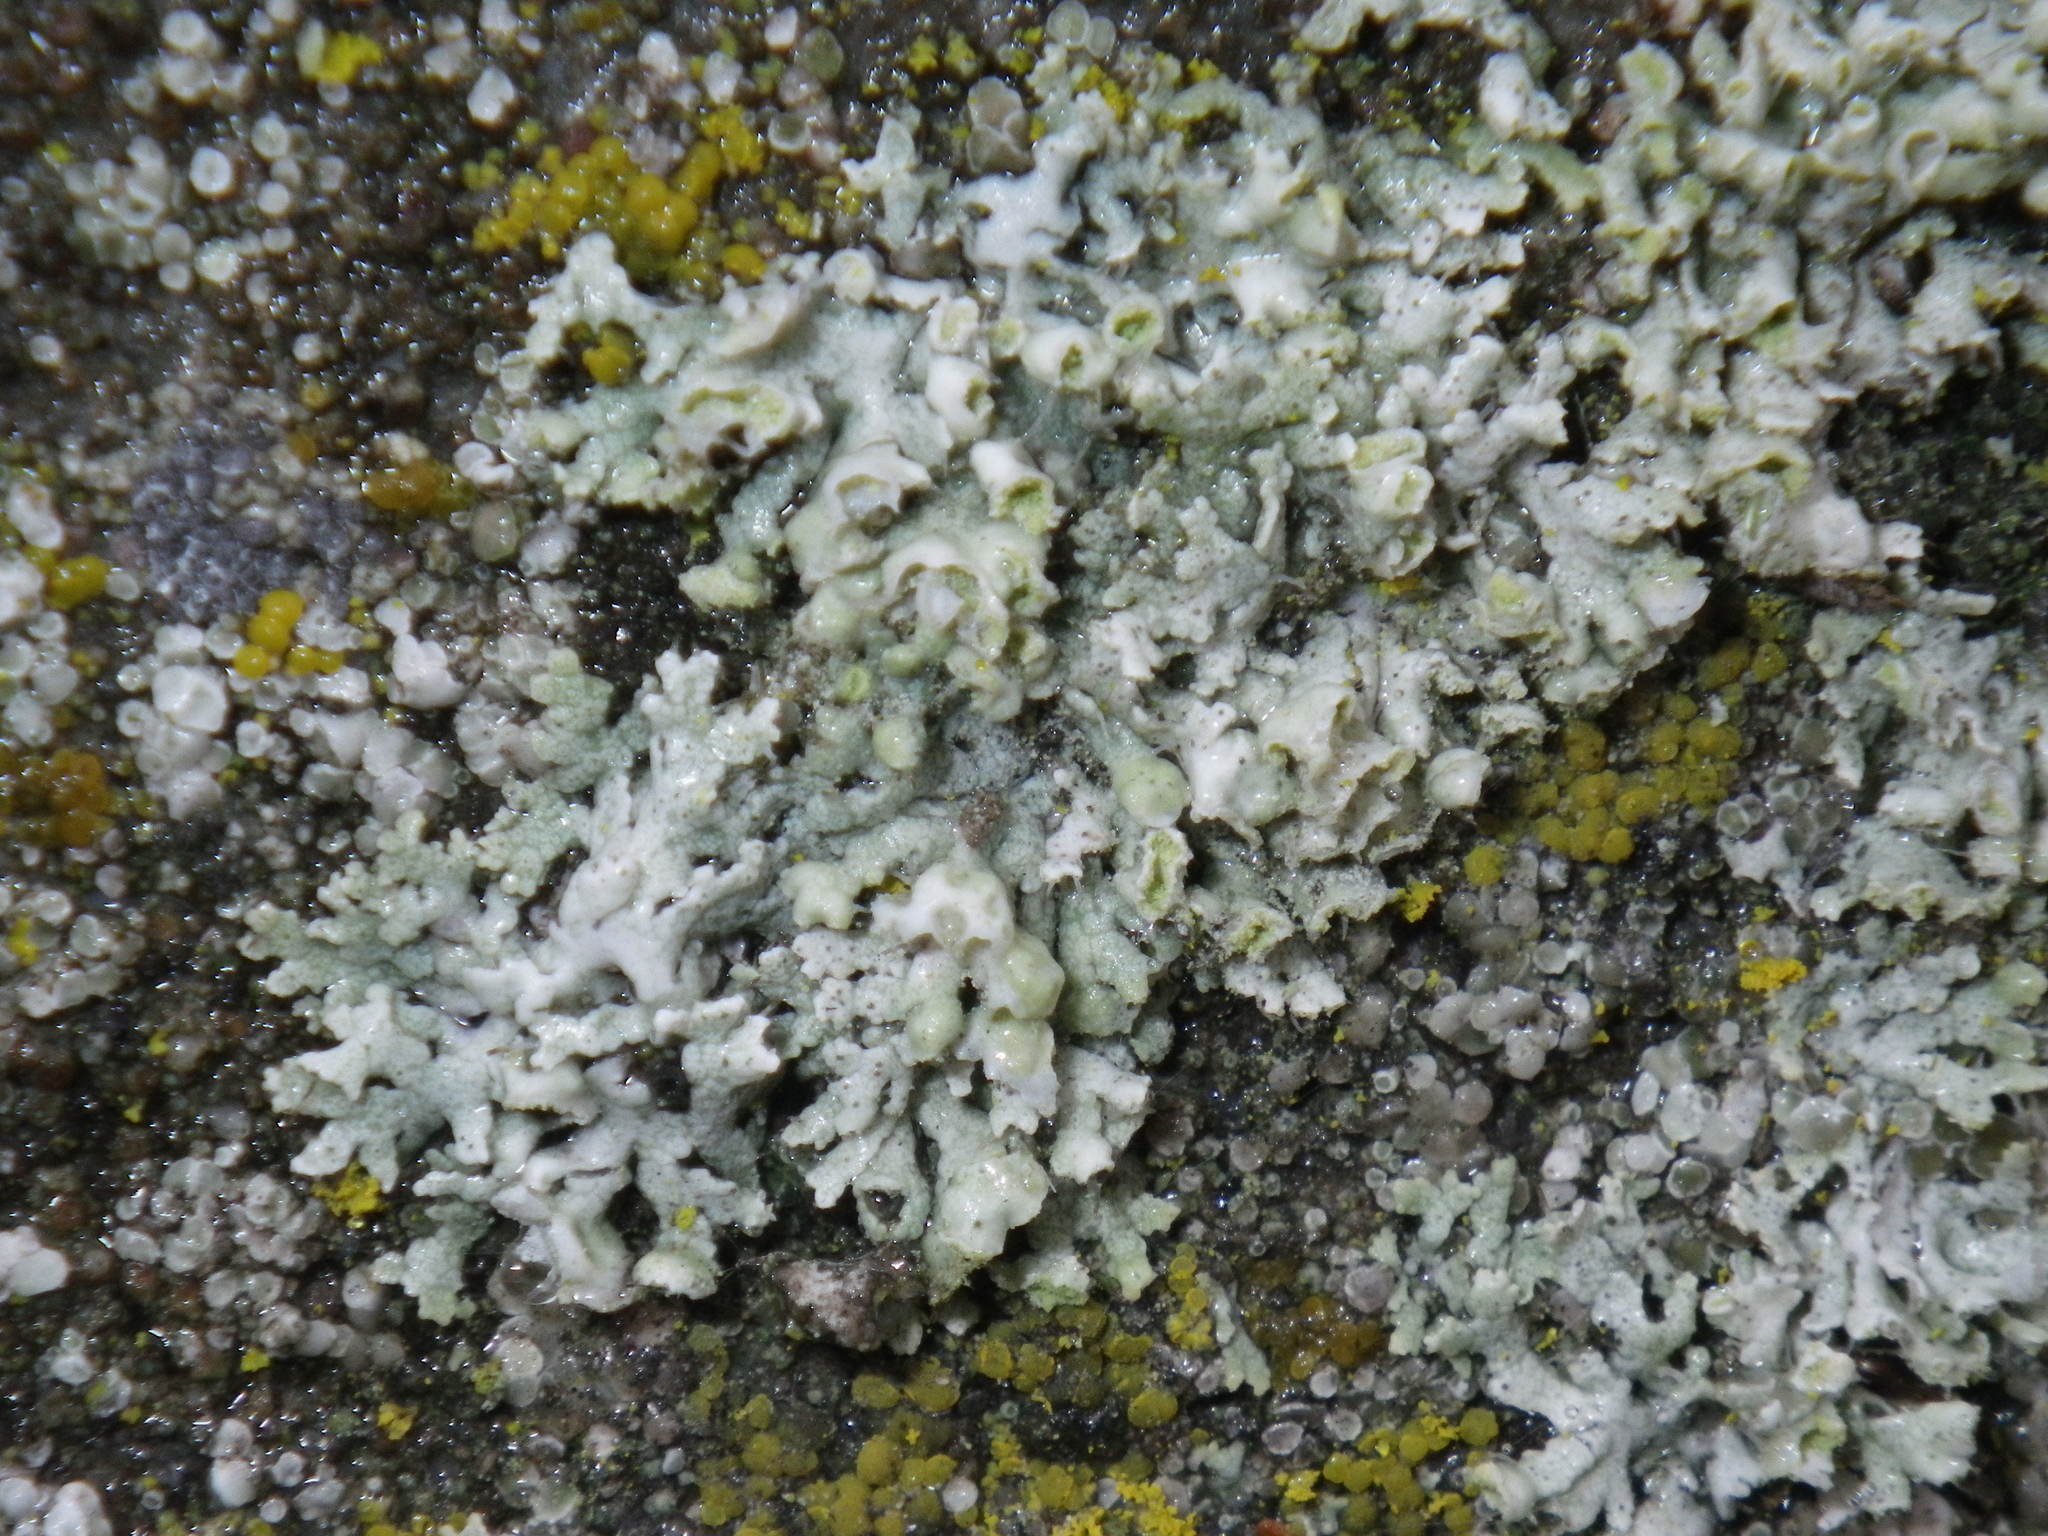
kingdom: Fungi
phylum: Ascomycota
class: Lecanoromycetes
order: Caliciales
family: Physciaceae
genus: Physcia
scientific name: Physcia adscendens
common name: Hooded rosette lichen
